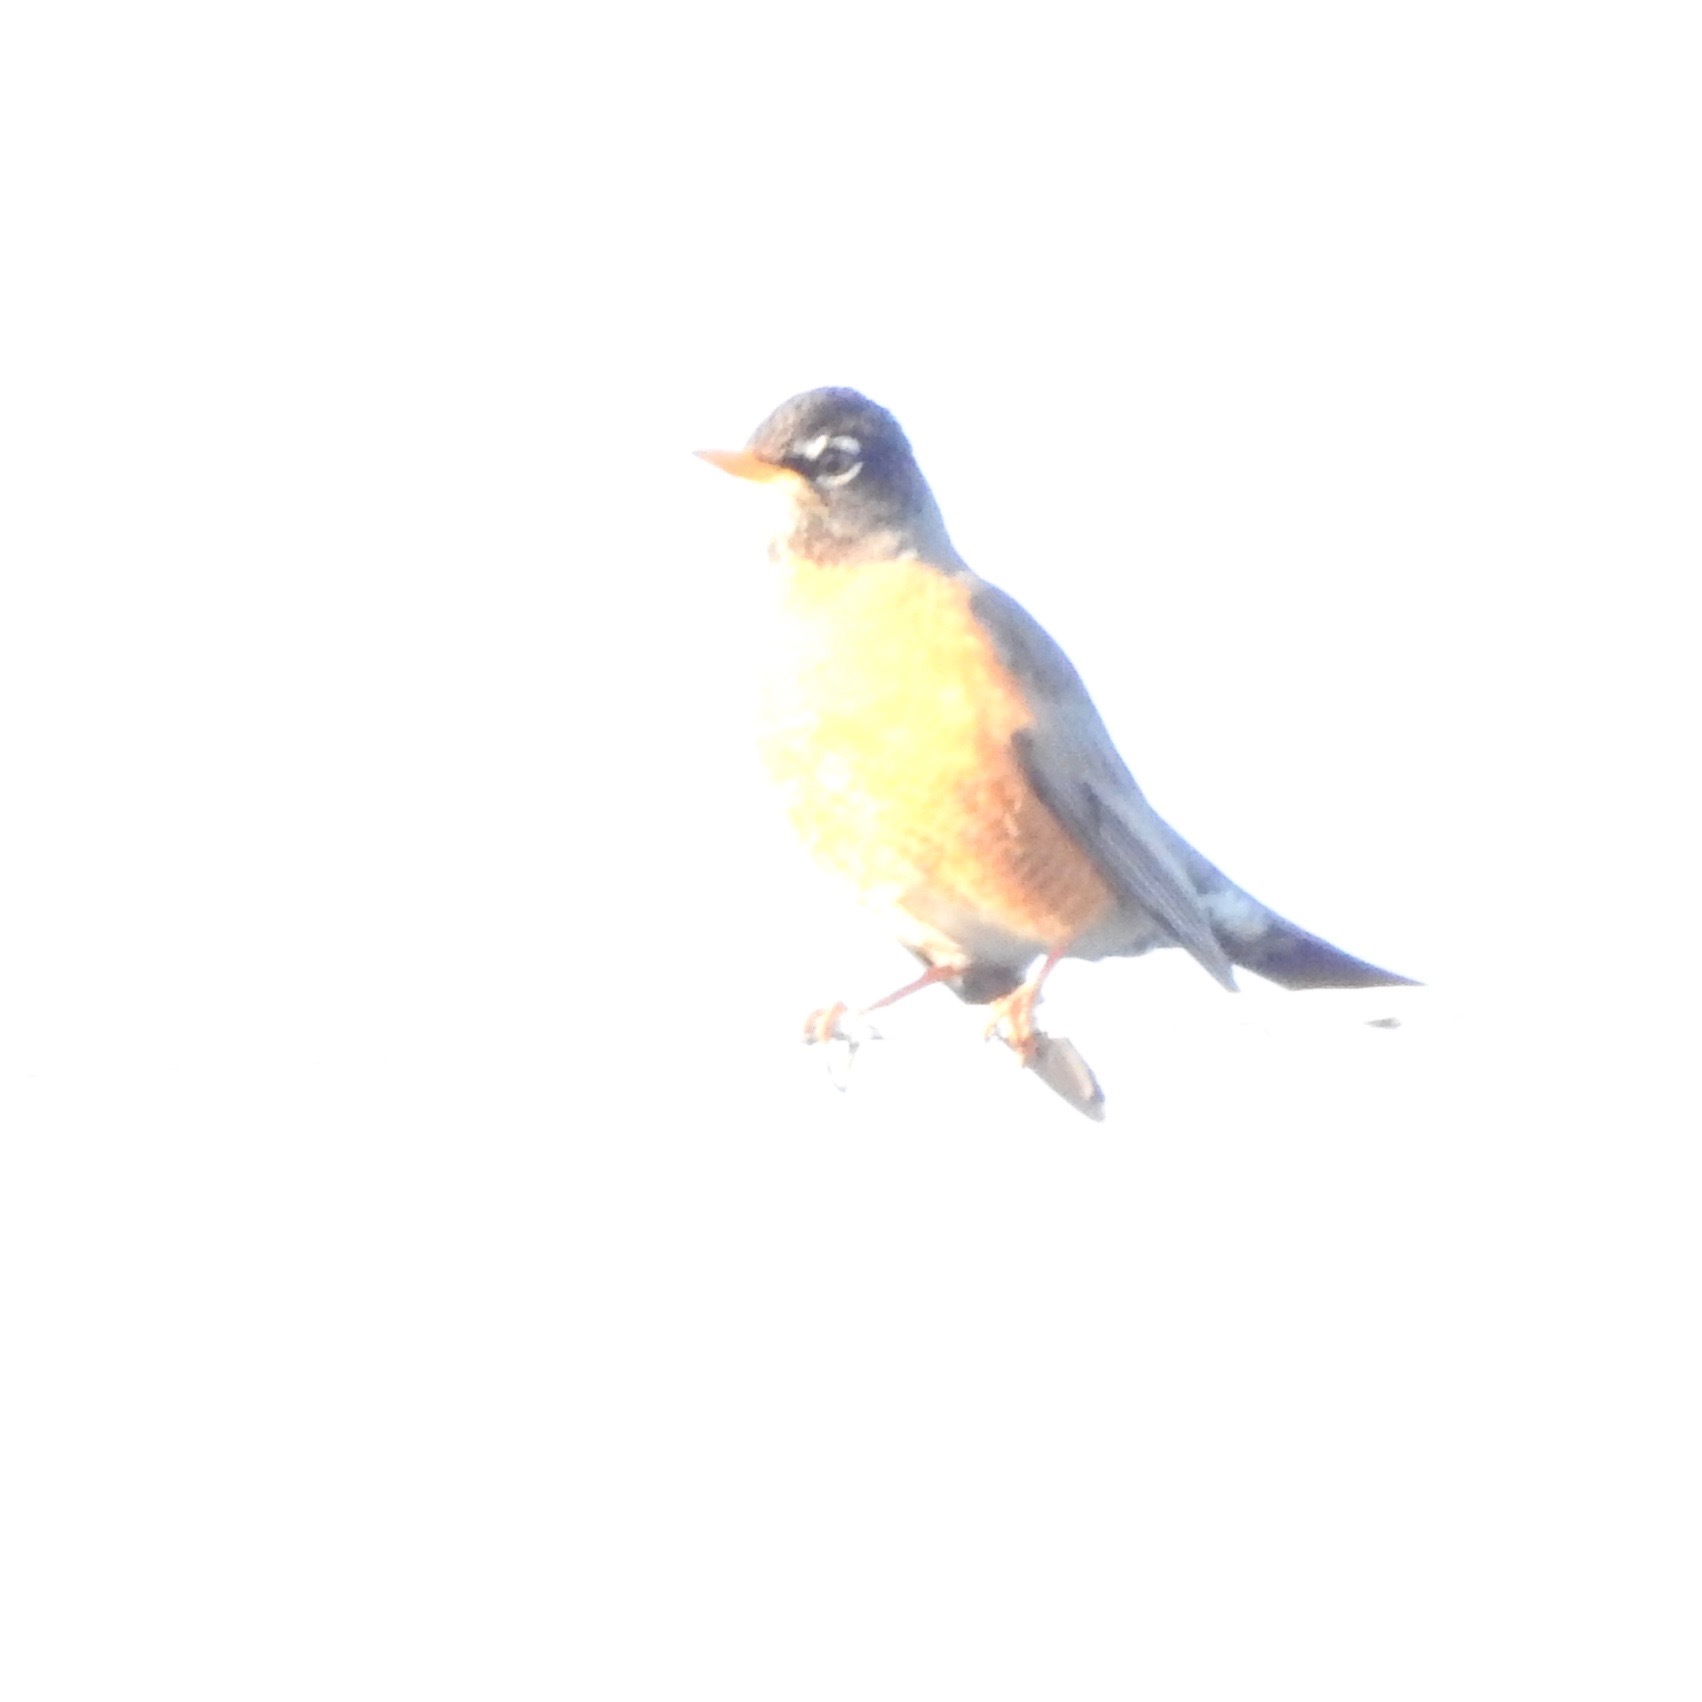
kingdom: Animalia
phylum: Chordata
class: Aves
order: Passeriformes
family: Turdidae
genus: Turdus
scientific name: Turdus migratorius
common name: American robin
